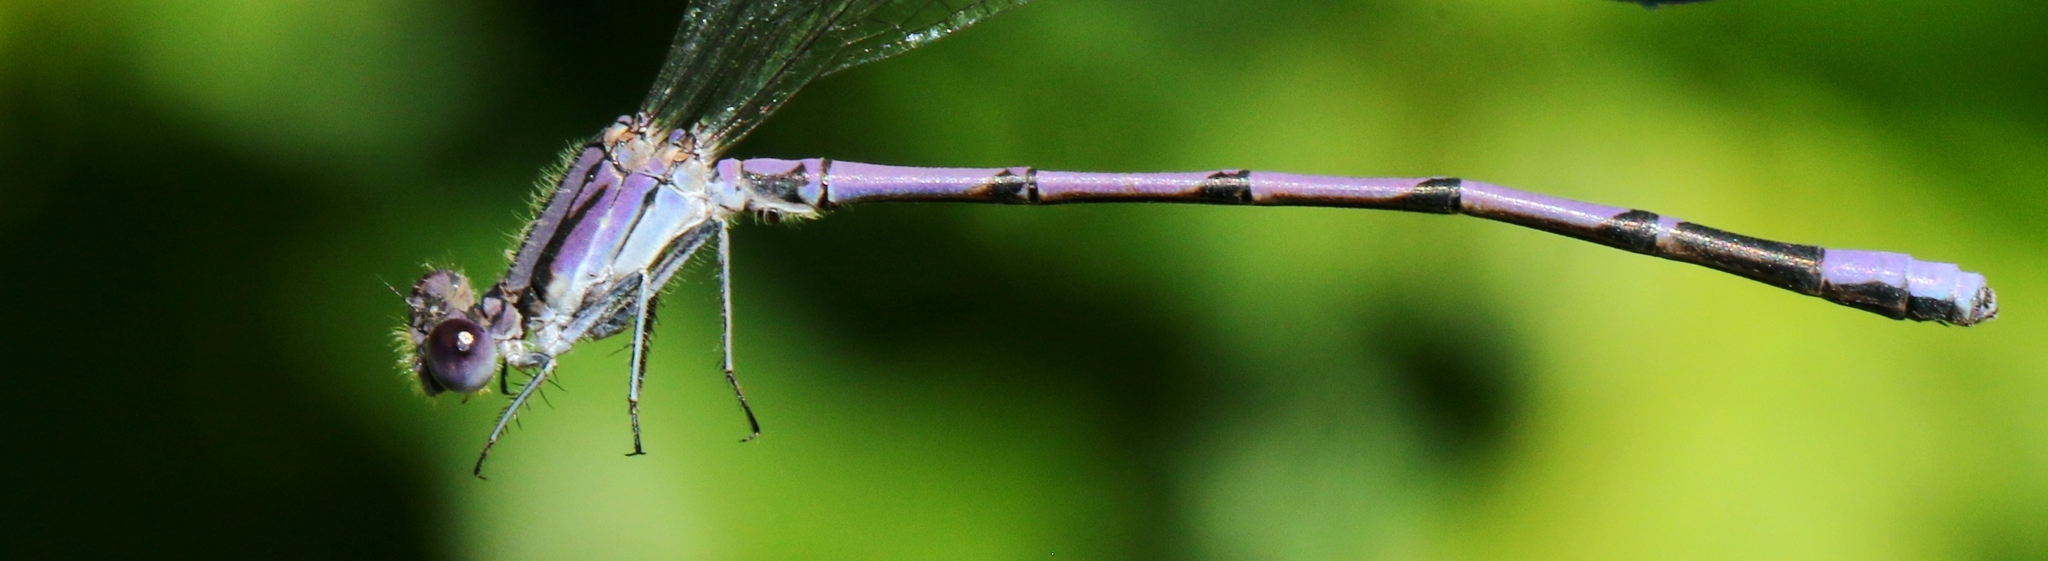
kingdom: Animalia
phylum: Arthropoda
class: Insecta
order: Odonata
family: Coenagrionidae
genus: Argia
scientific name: Argia fumipennis
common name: Variable dancer
